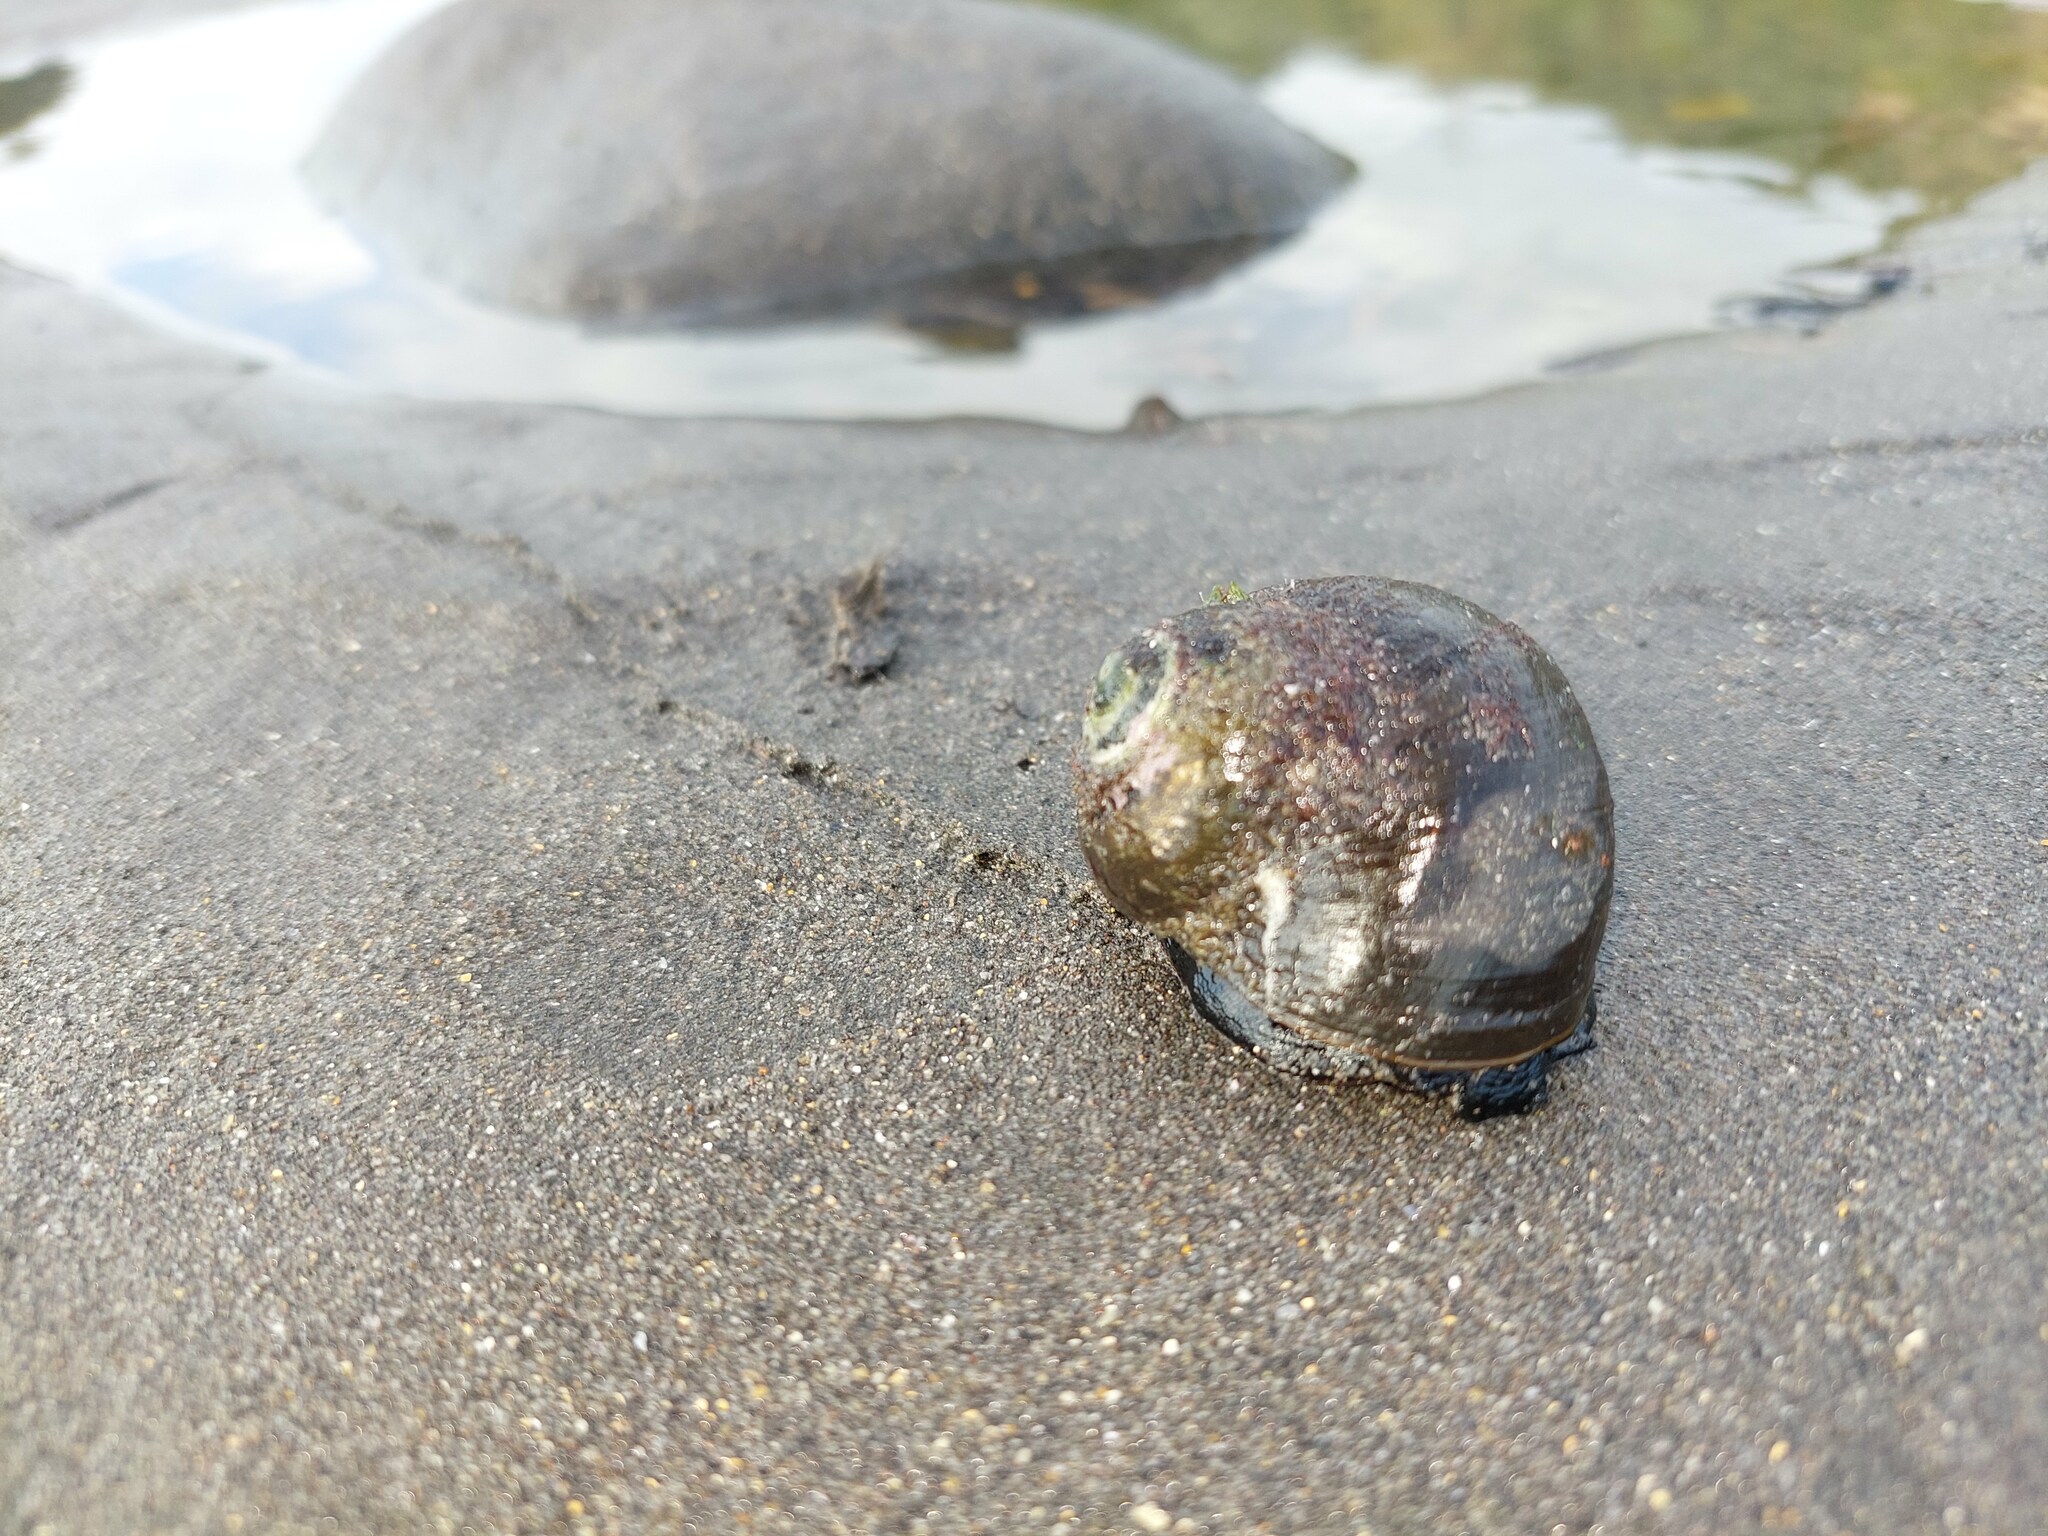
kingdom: Animalia
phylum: Mollusca
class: Gastropoda
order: Trochida
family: Turbinidae
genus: Lunella
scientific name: Lunella smaragda
